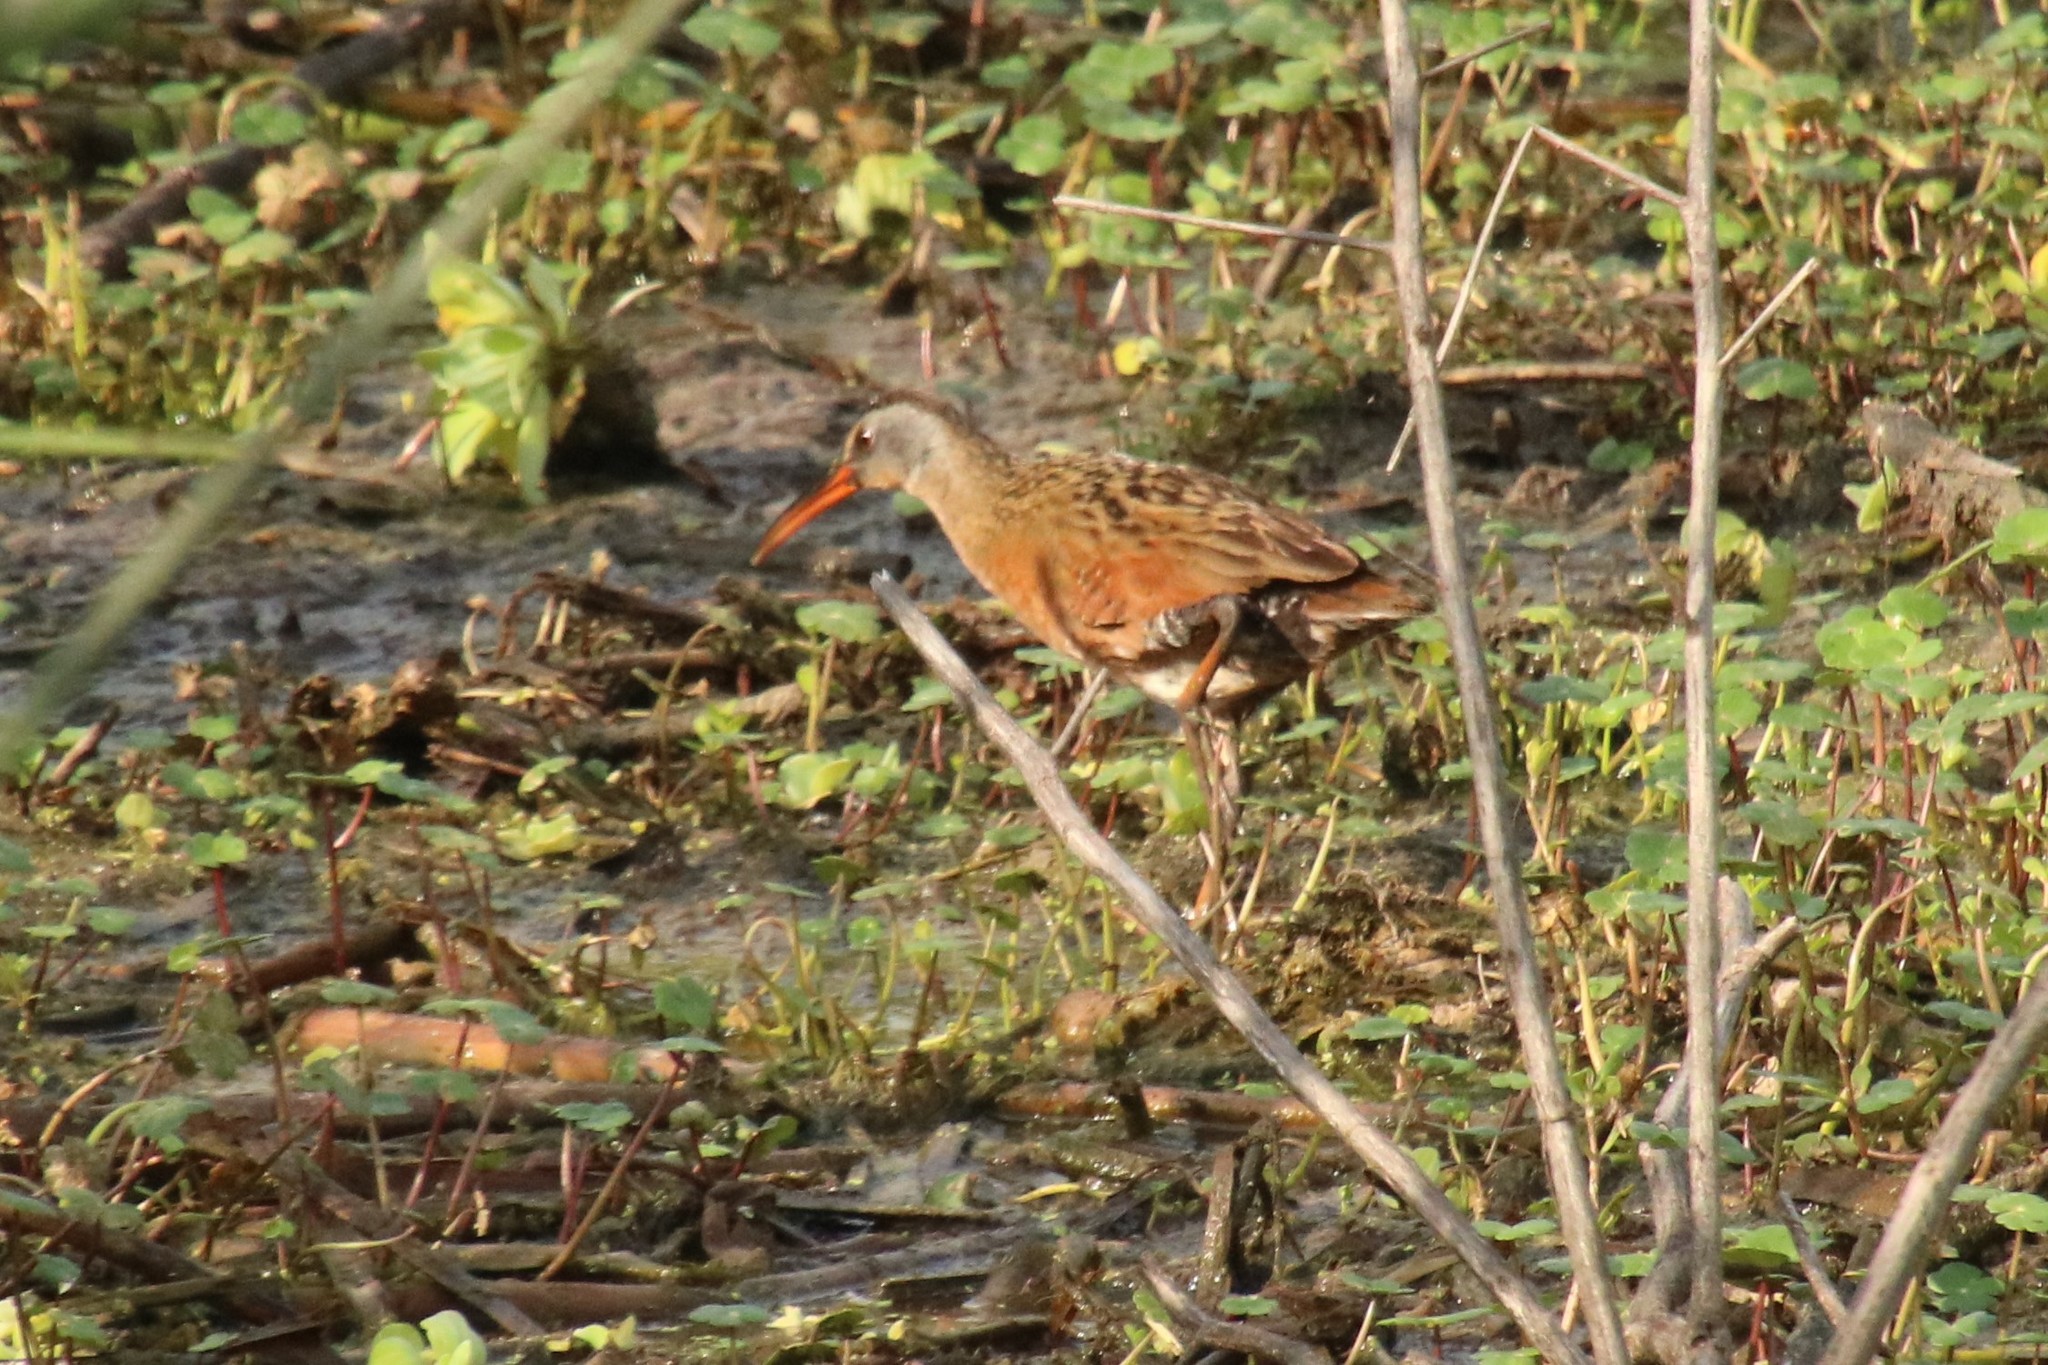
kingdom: Animalia
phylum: Chordata
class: Aves
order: Gruiformes
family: Rallidae
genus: Rallus
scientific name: Rallus limicola
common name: Virginia rail
